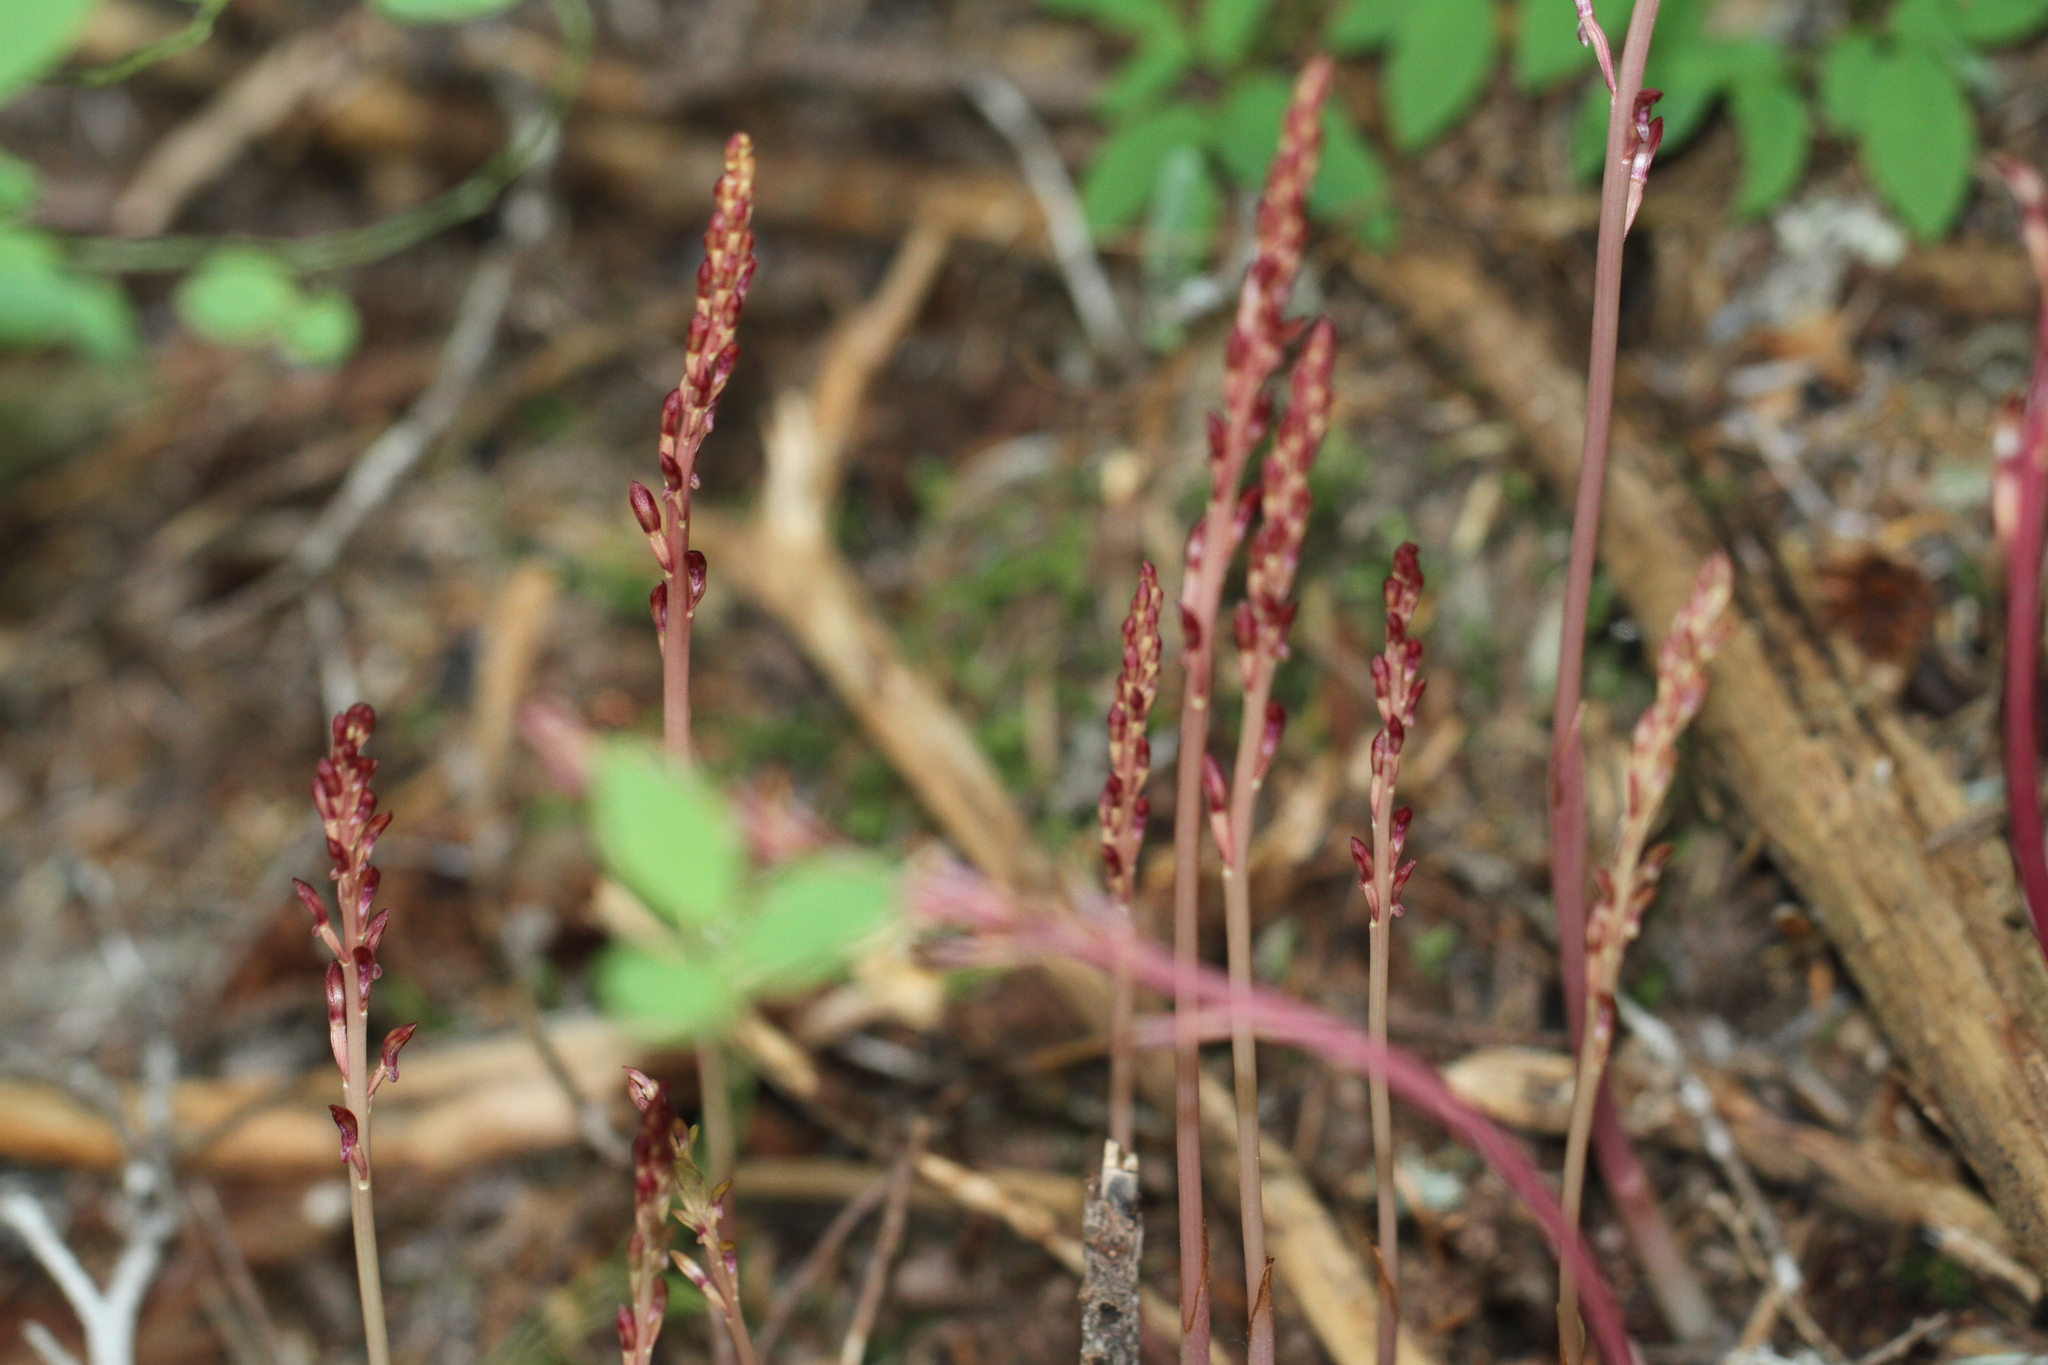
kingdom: Plantae
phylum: Tracheophyta
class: Liliopsida
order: Asparagales
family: Orchidaceae
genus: Corallorhiza
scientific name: Corallorhiza maculata
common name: Spotted coralroot
